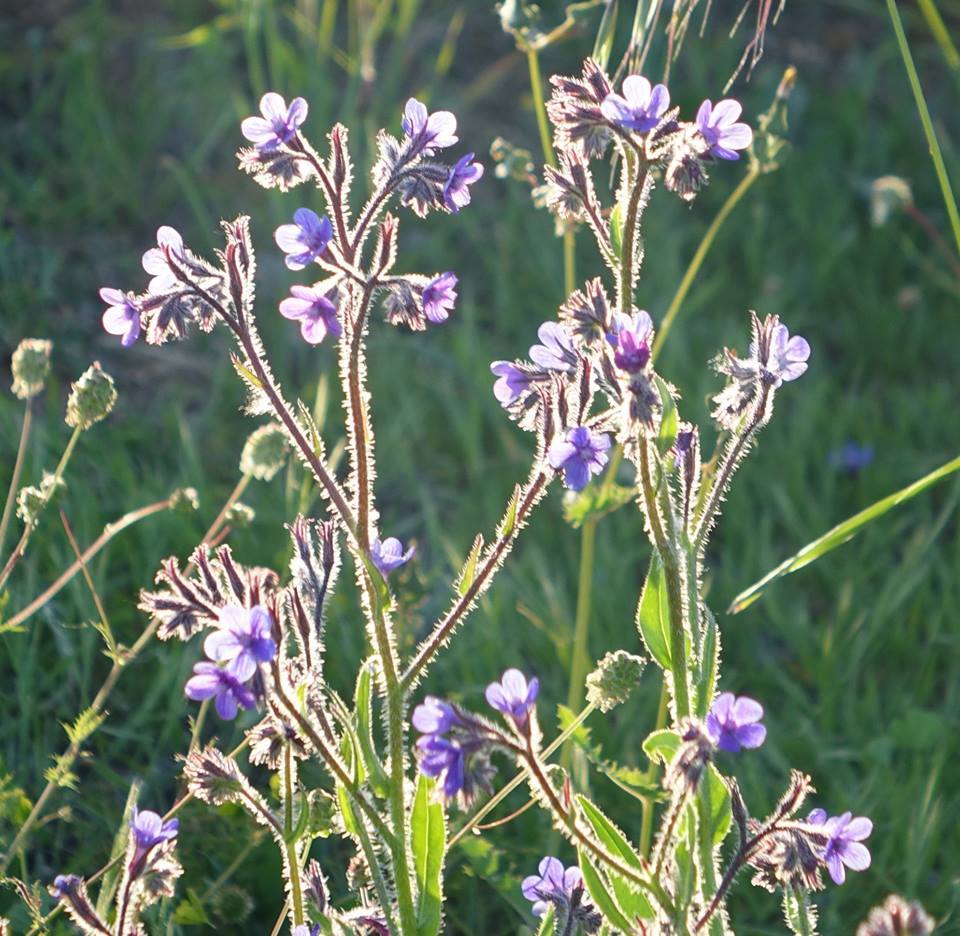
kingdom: Plantae
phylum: Tracheophyta
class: Magnoliopsida
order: Boraginales
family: Boraginaceae
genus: Anchusa
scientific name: Anchusa azurea
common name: Garden anchusa
